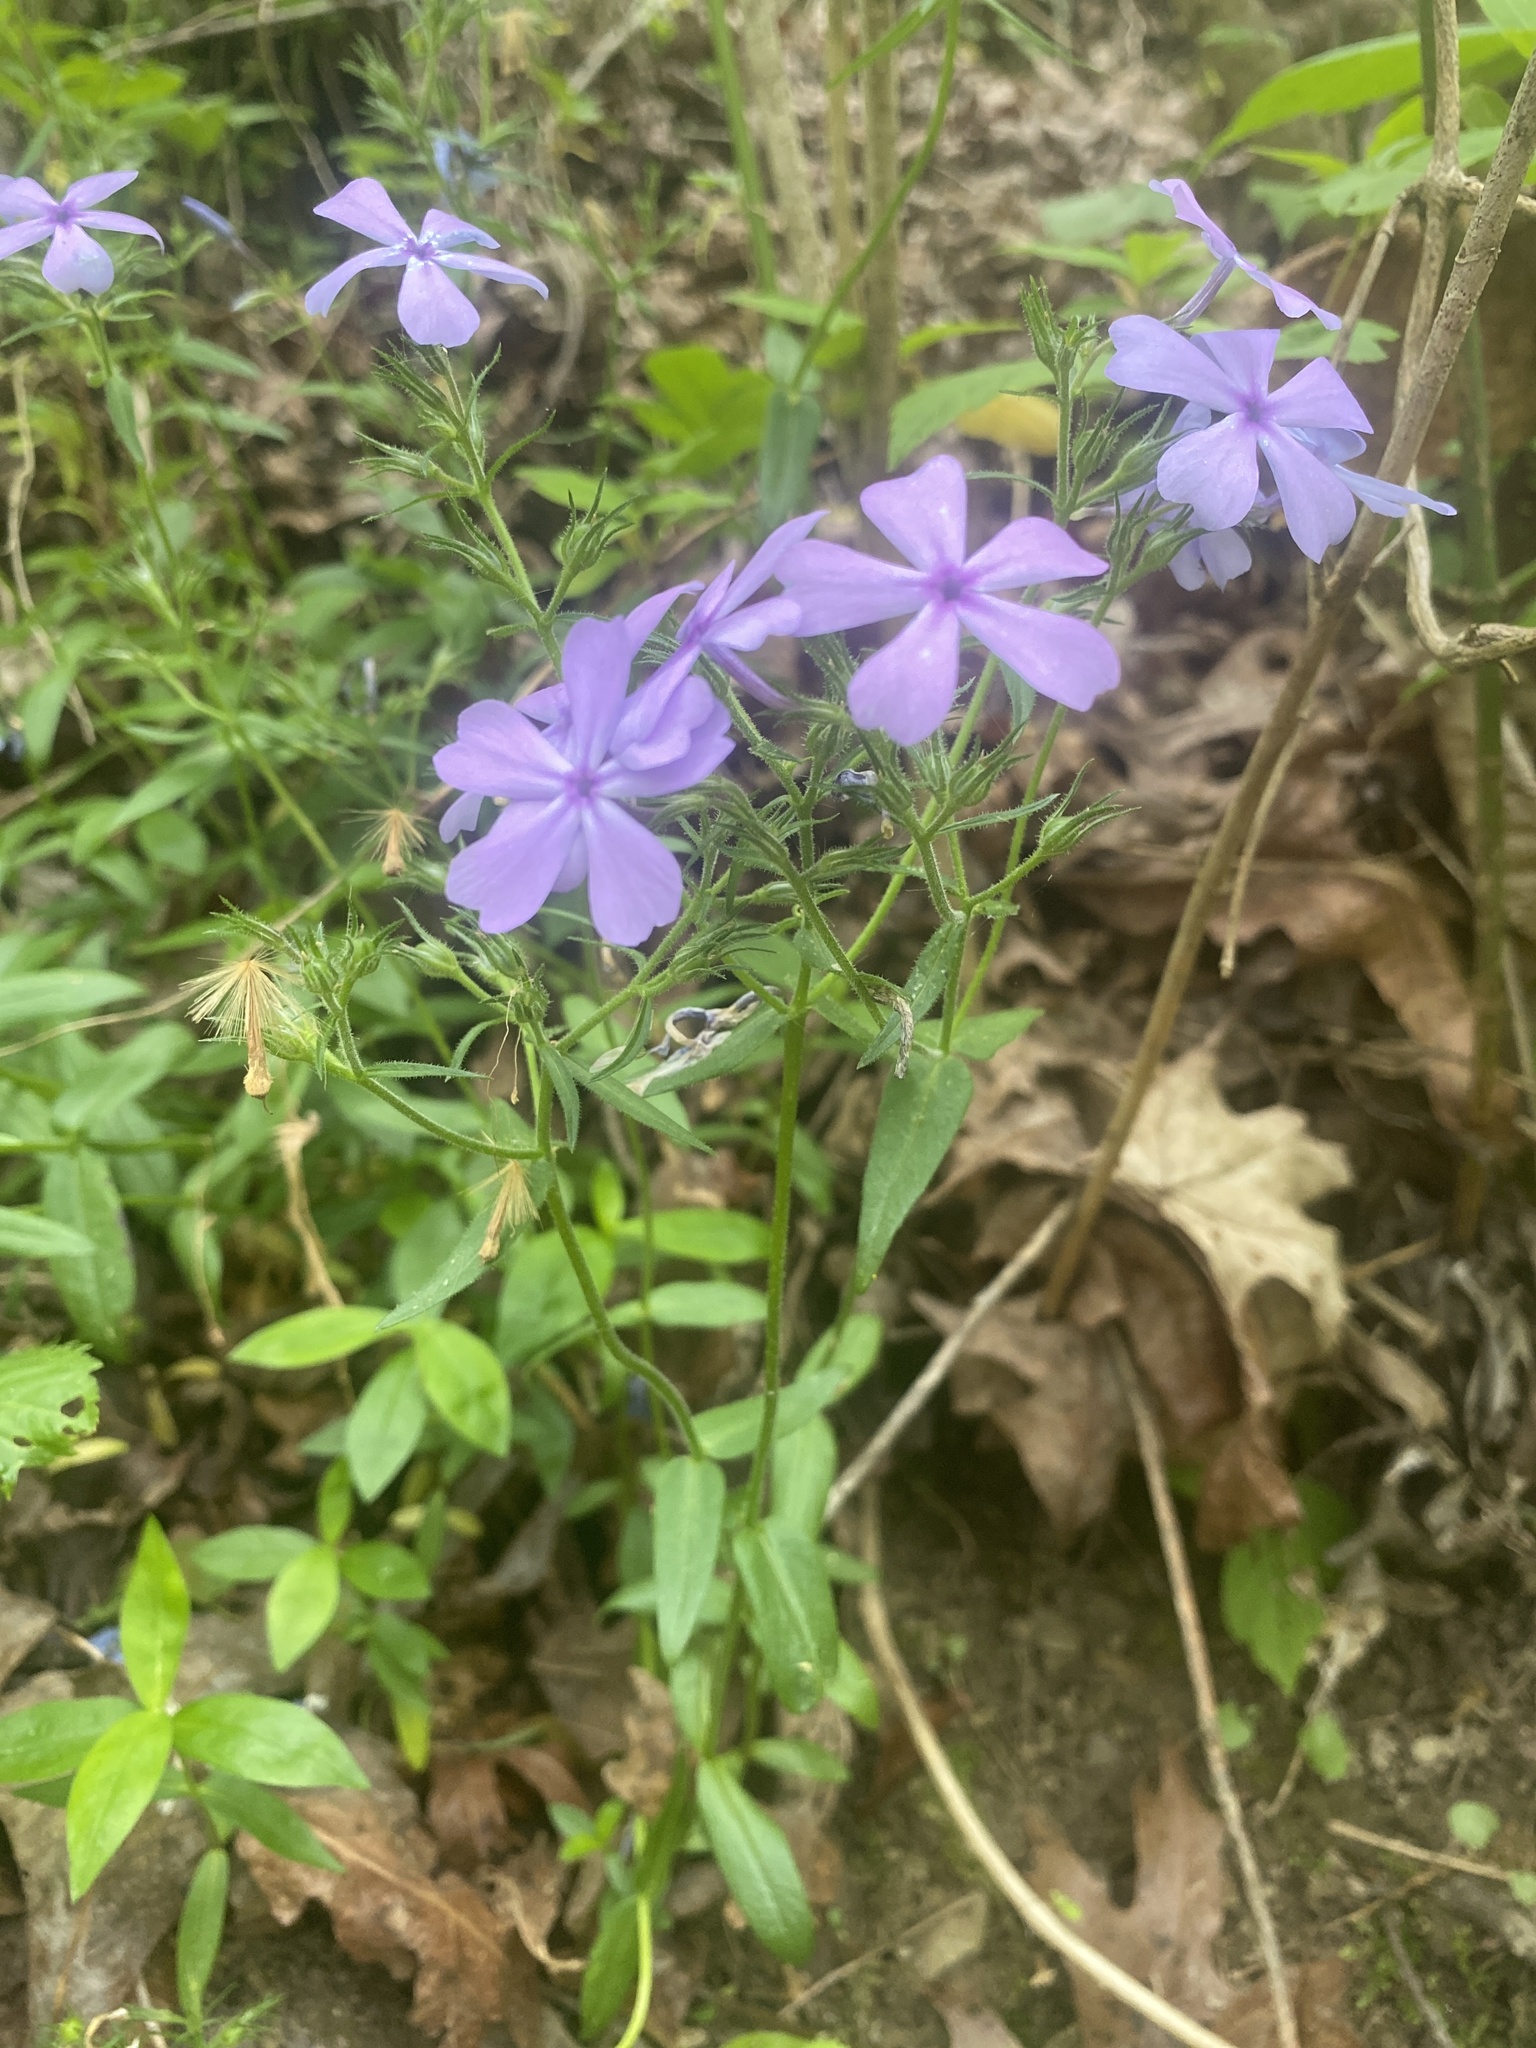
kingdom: Plantae
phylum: Tracheophyta
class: Magnoliopsida
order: Ericales
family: Polemoniaceae
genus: Phlox
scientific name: Phlox divaricata
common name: Blue phlox
